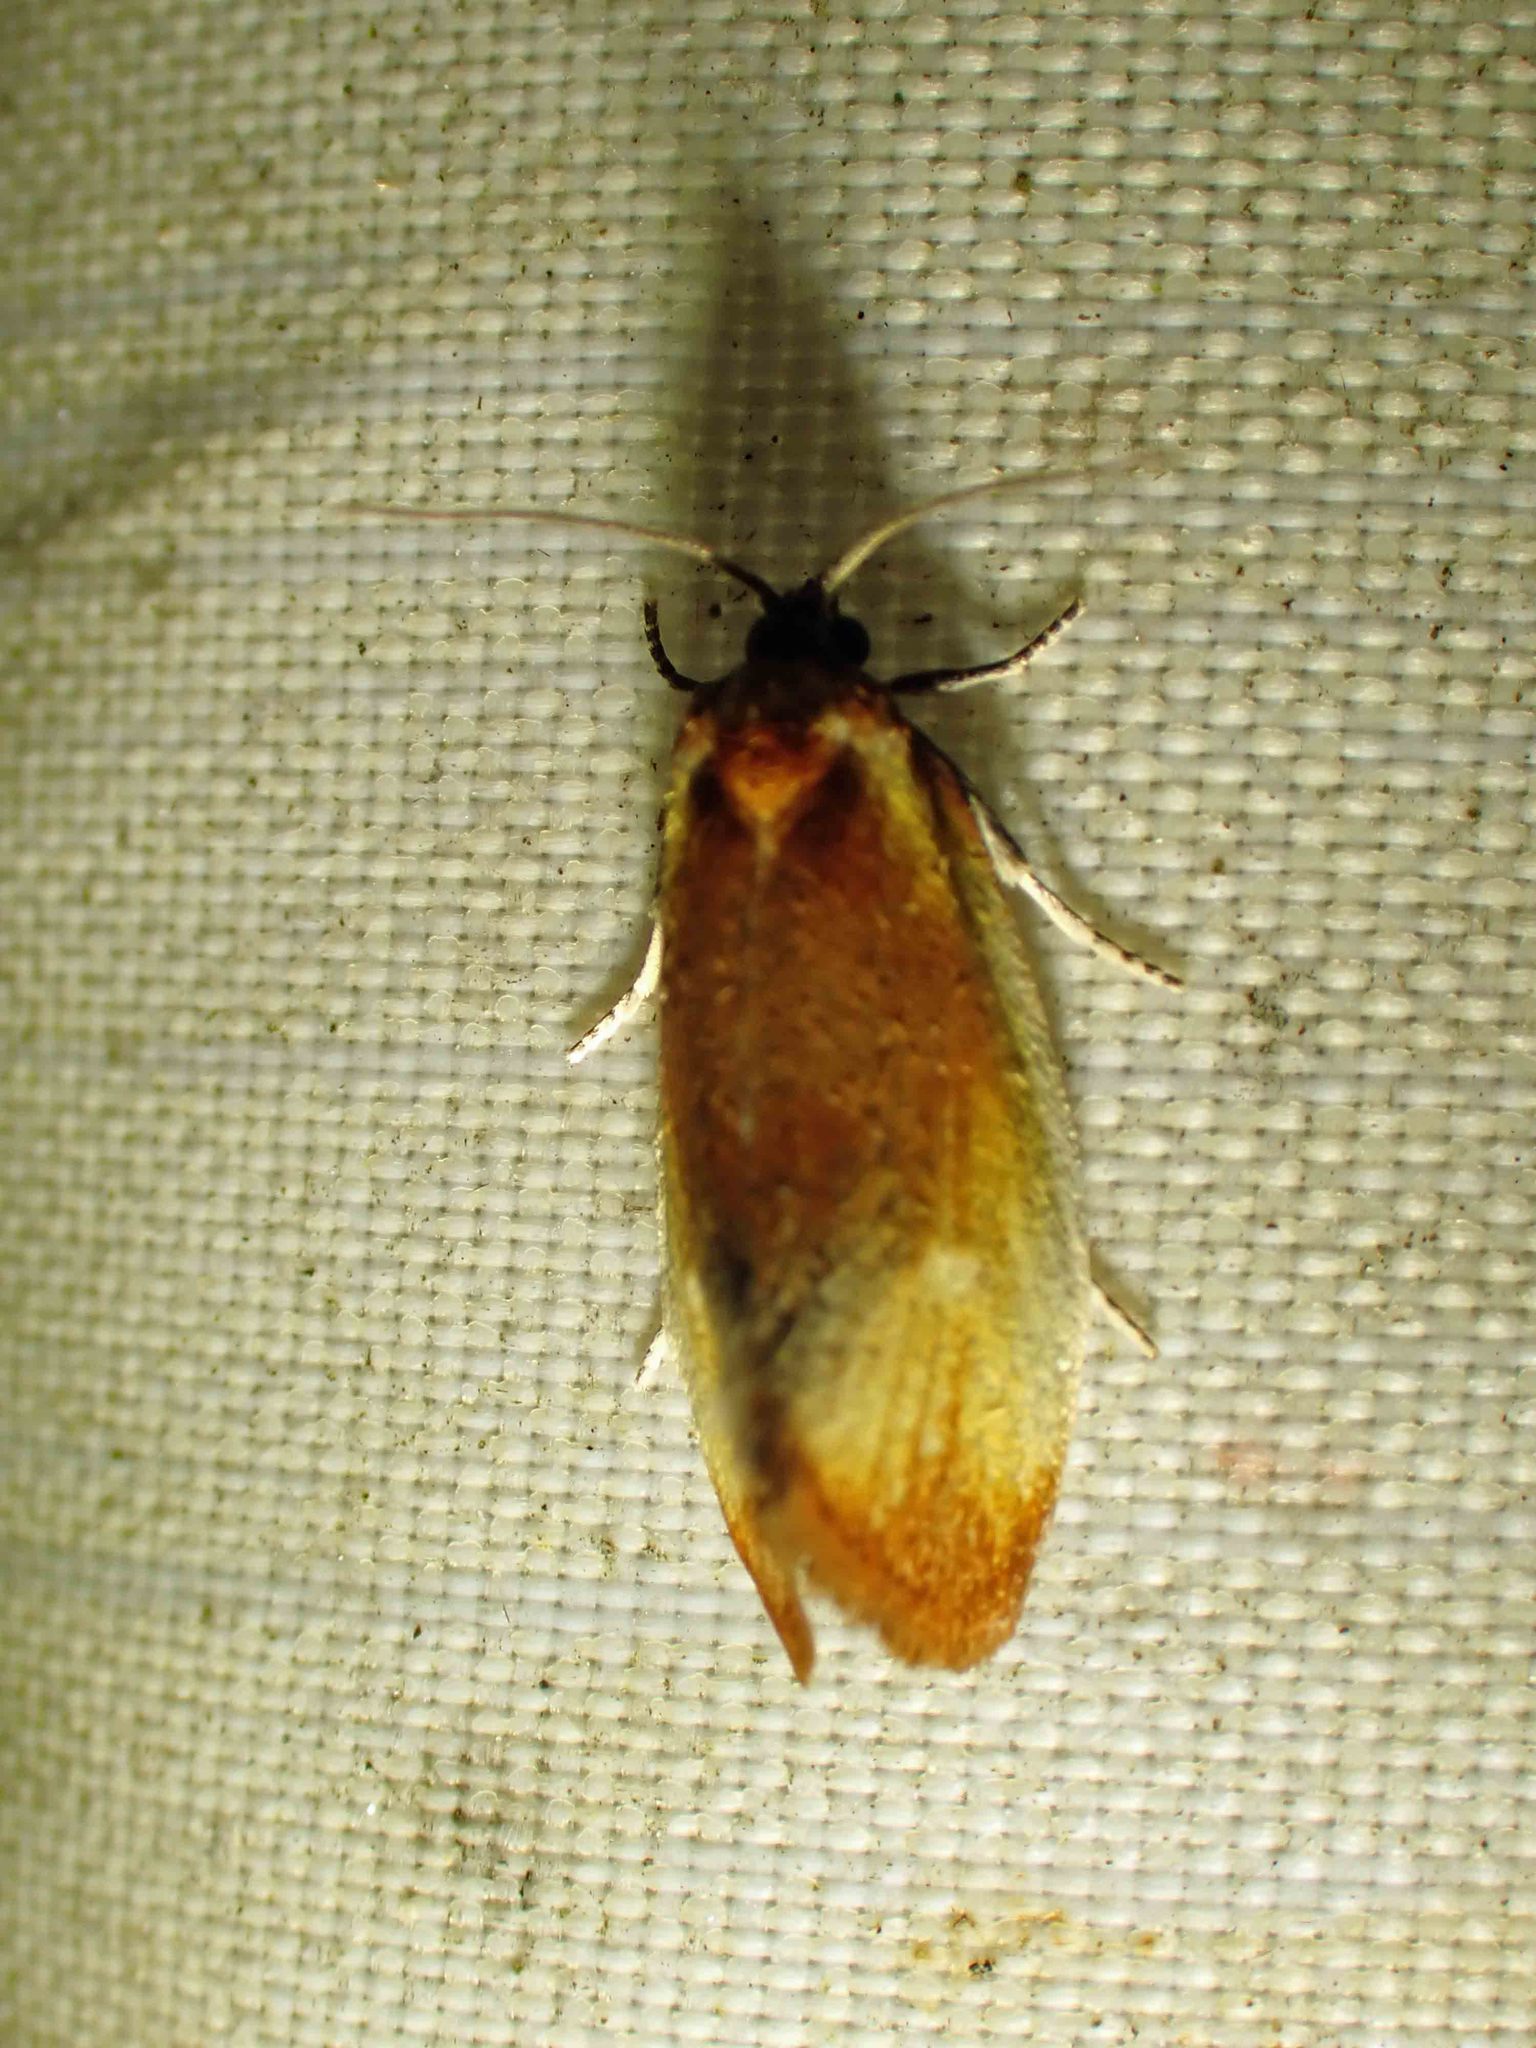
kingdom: Animalia
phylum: Arthropoda
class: Insecta
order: Lepidoptera
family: Tortricidae
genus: Eulia
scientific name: Eulia ministrana
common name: Brassy twist
